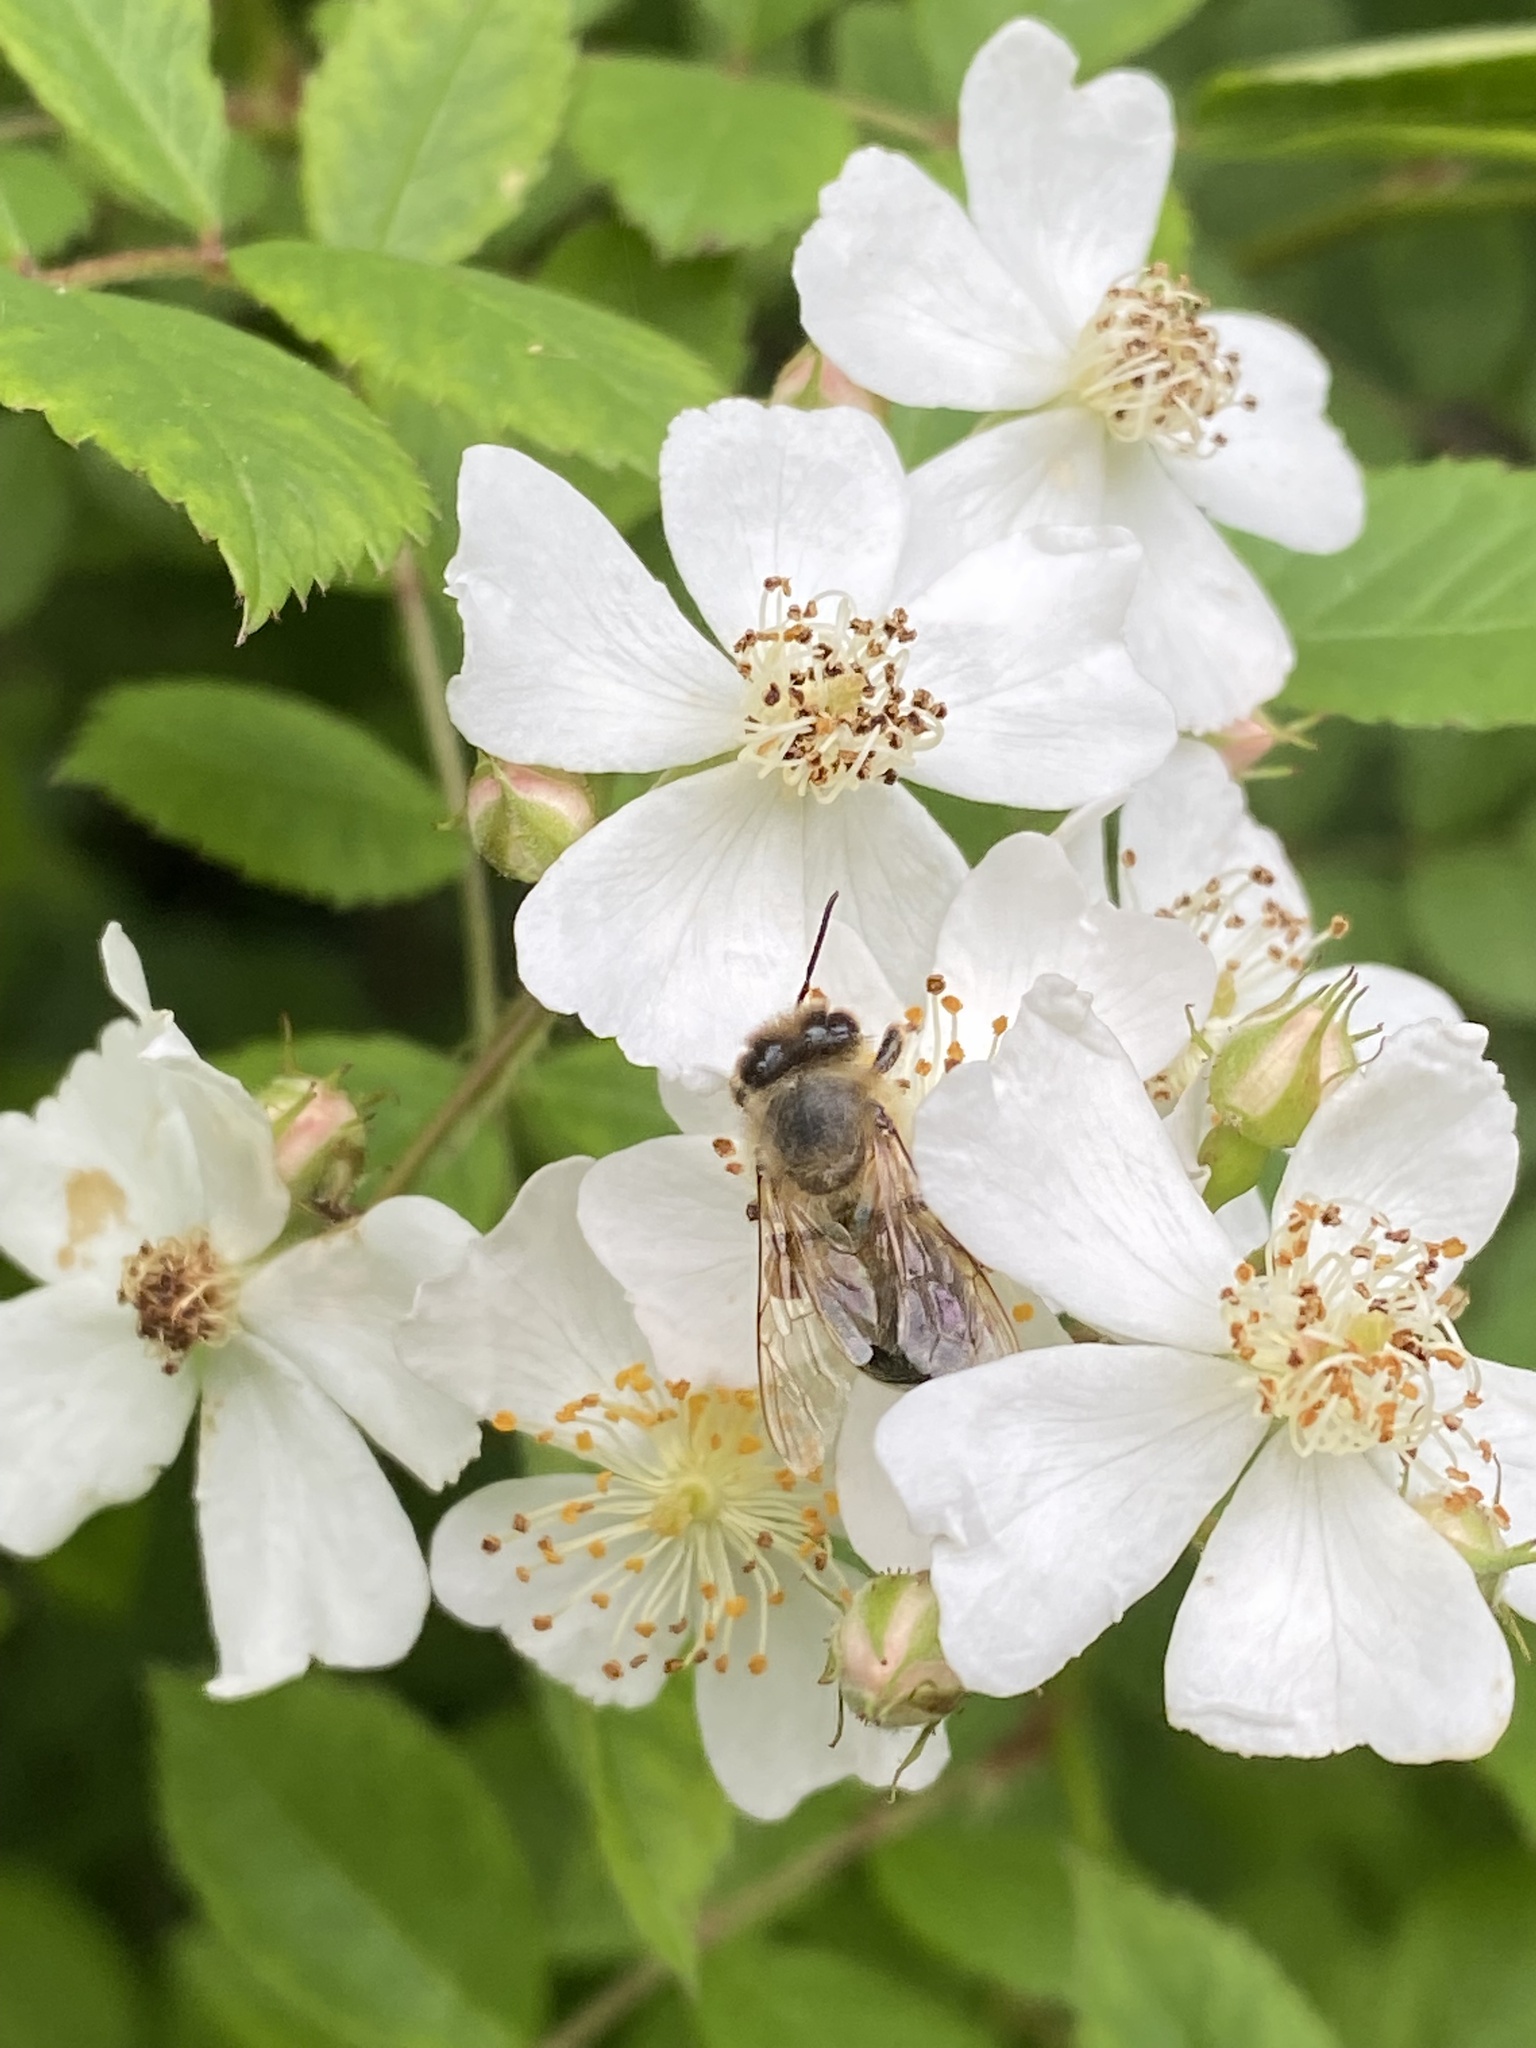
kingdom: Plantae
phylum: Tracheophyta
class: Magnoliopsida
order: Rosales
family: Rosaceae
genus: Rosa
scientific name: Rosa multiflora
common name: Multiflora rose
